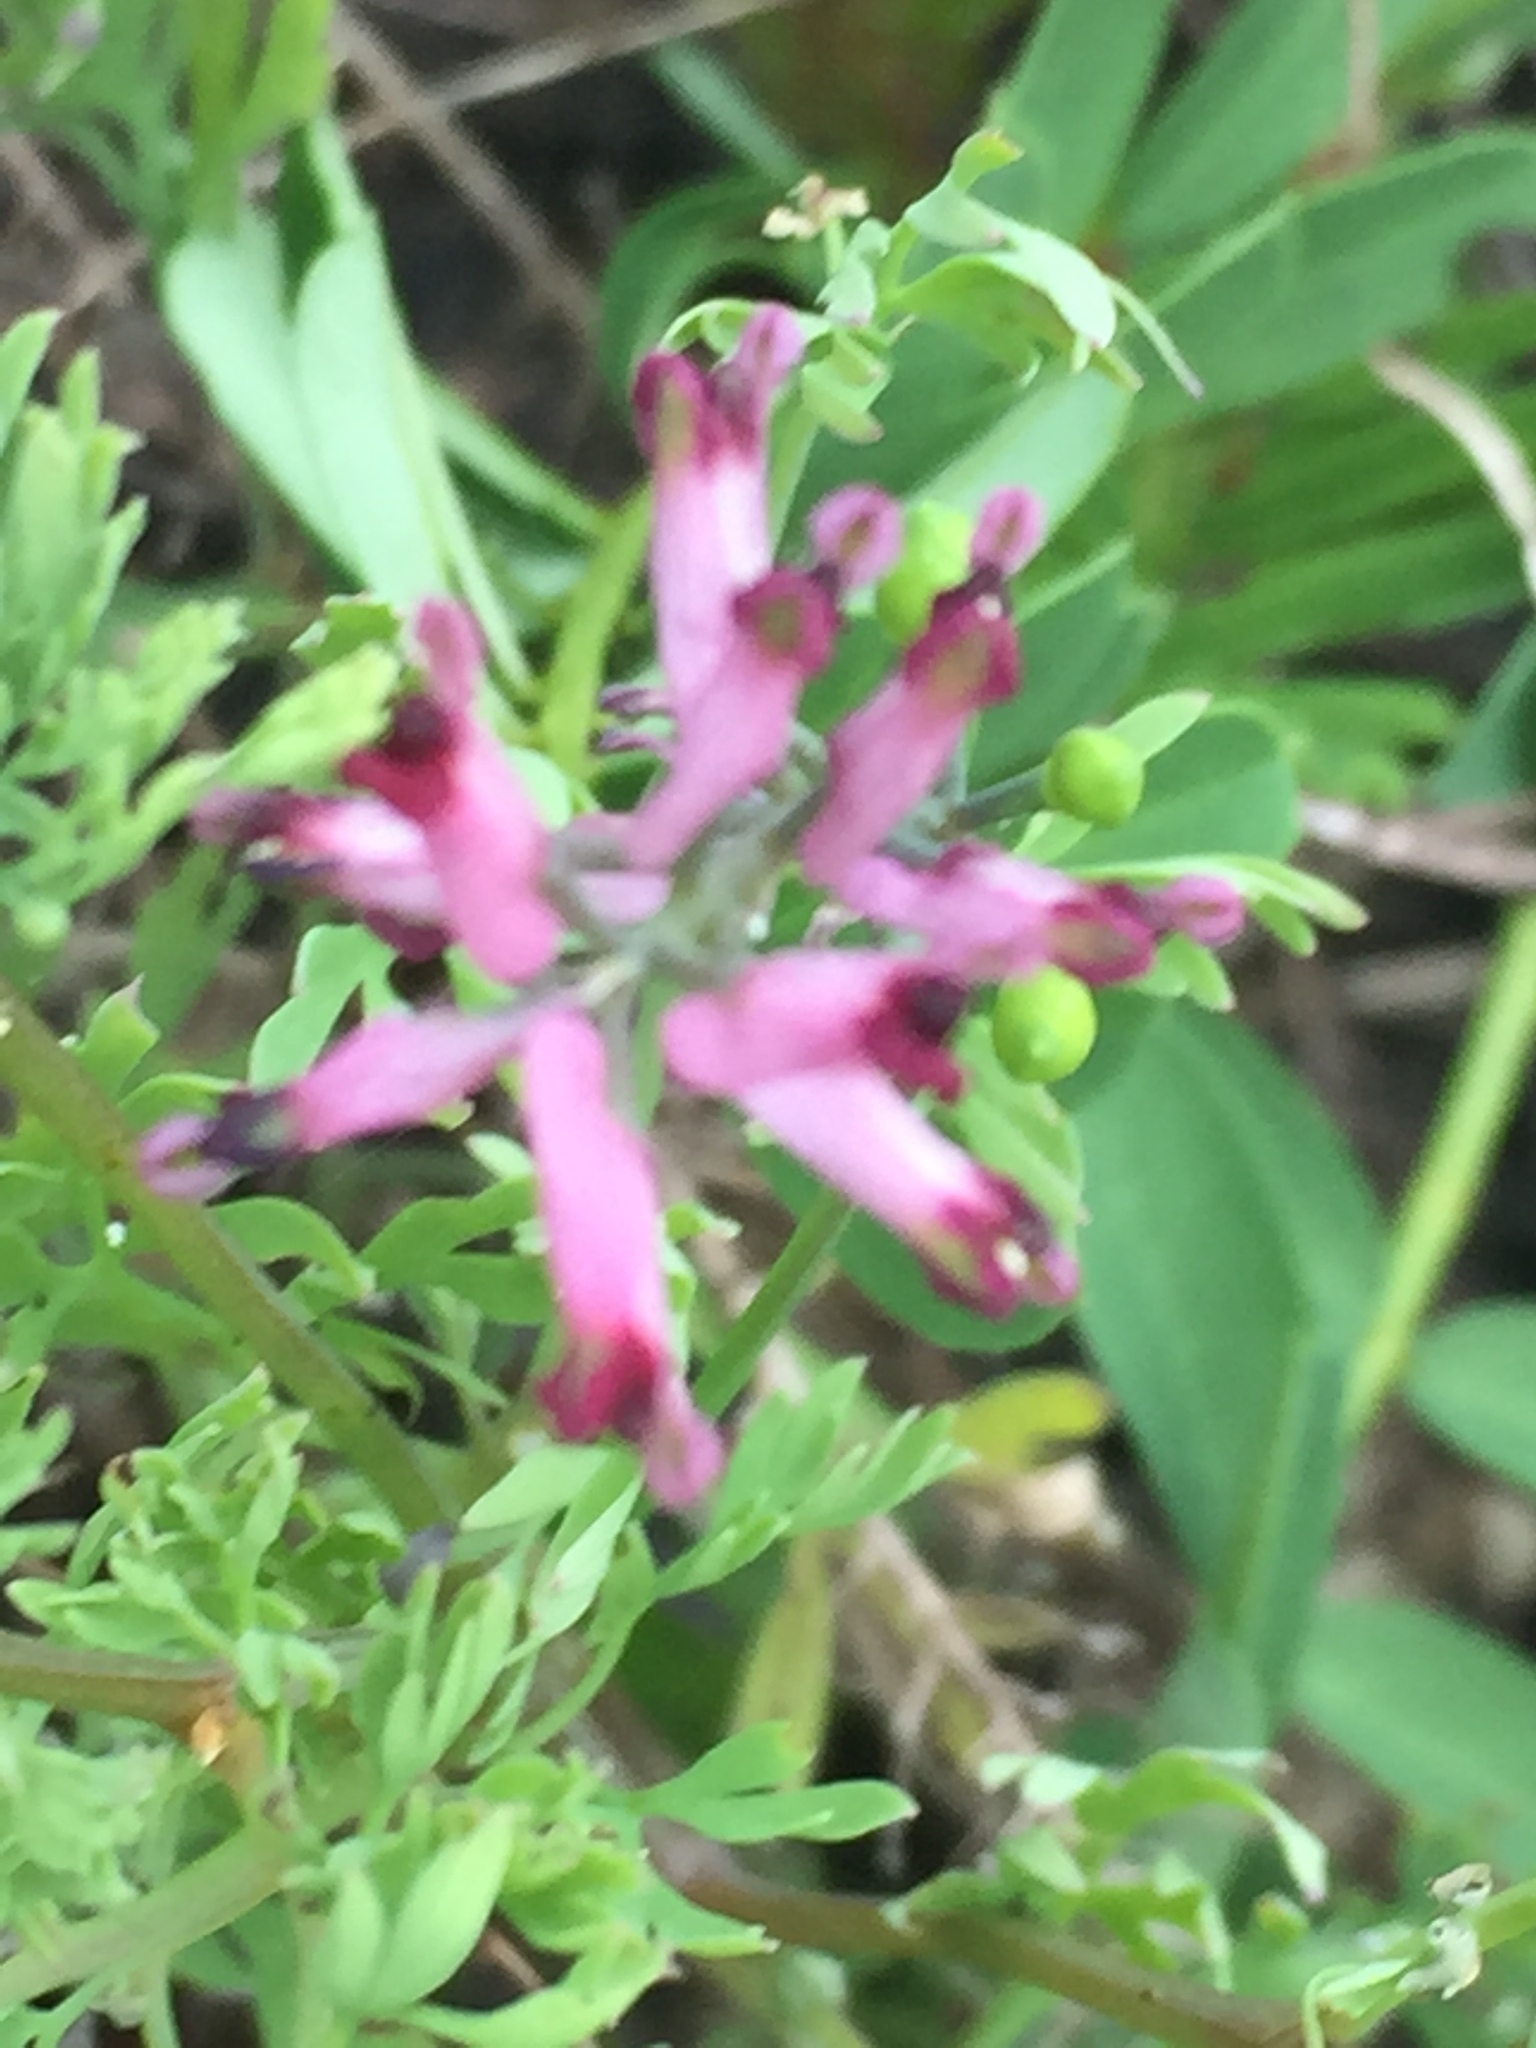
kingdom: Plantae
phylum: Tracheophyta
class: Magnoliopsida
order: Ranunculales
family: Papaveraceae
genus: Fumaria
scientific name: Fumaria schleicheri
